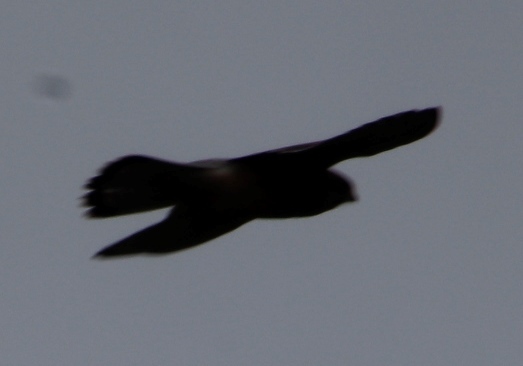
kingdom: Animalia
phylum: Chordata
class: Aves
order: Falconiformes
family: Falconidae
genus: Falco
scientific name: Falco tinnunculus
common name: Common kestrel
